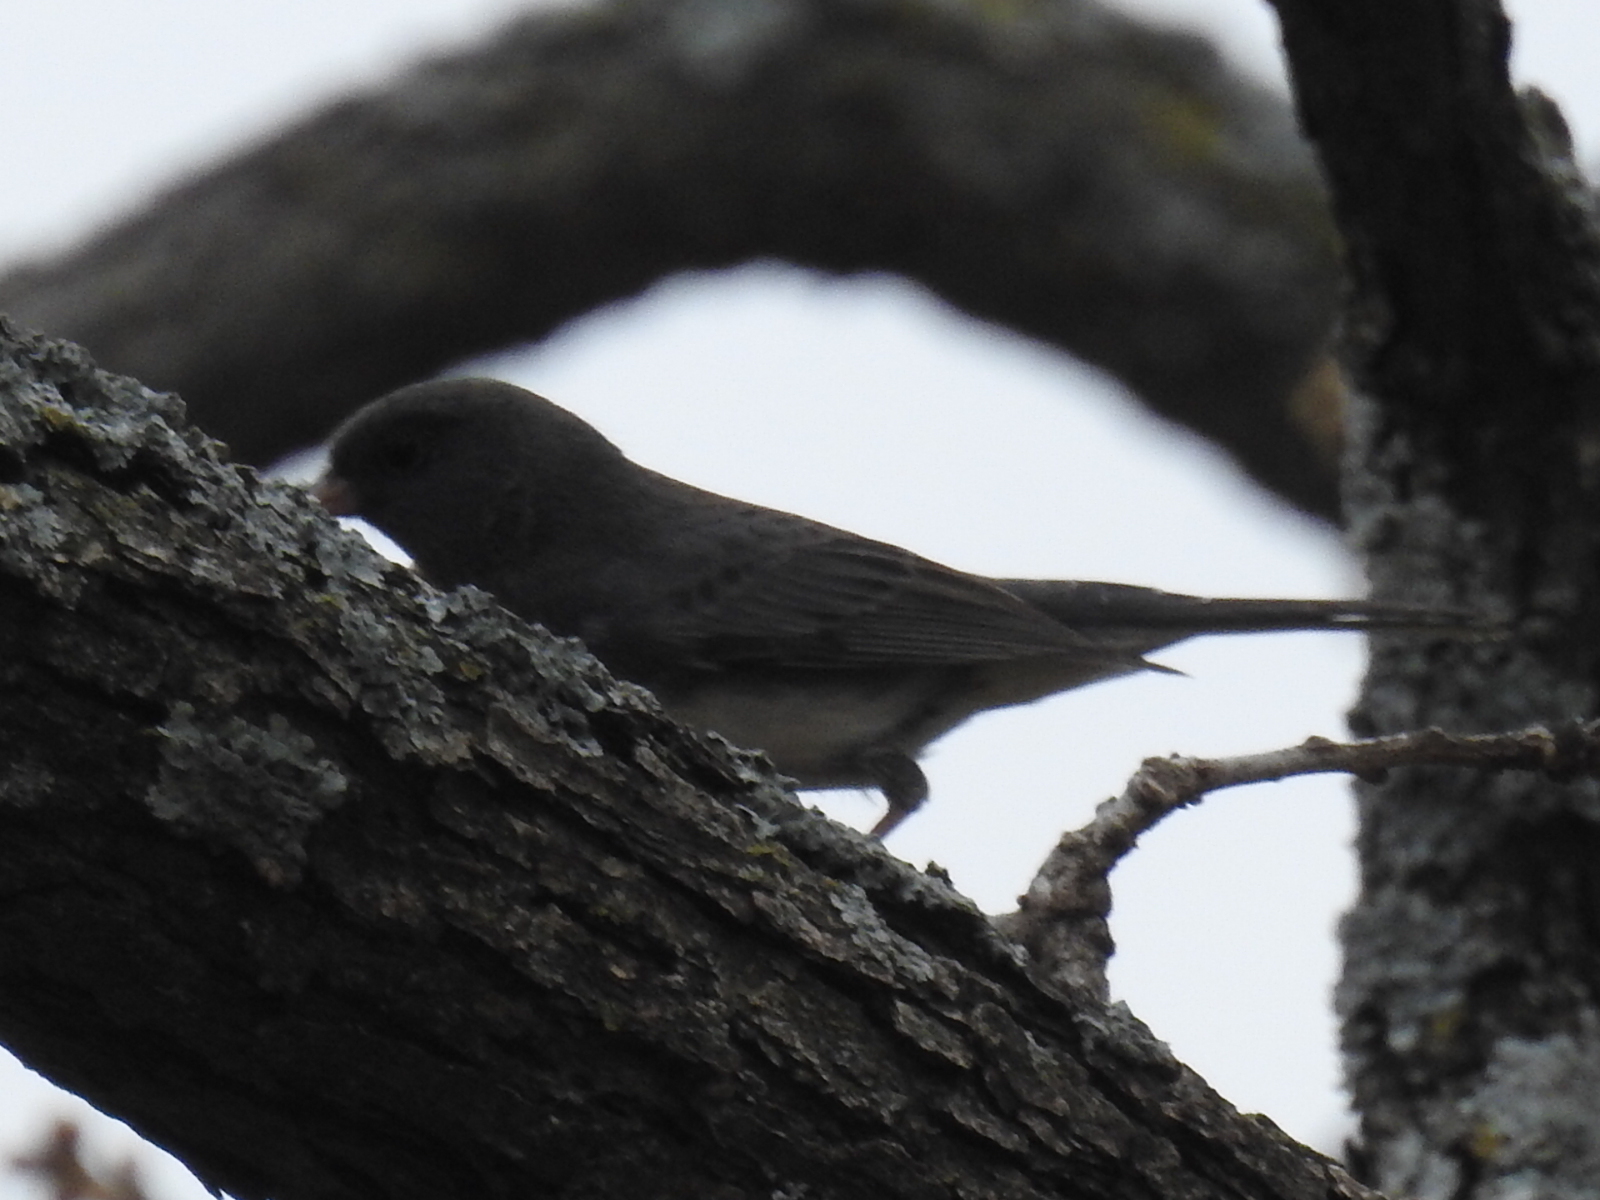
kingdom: Animalia
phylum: Chordata
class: Aves
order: Passeriformes
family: Passerellidae
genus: Junco
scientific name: Junco hyemalis
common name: Dark-eyed junco
